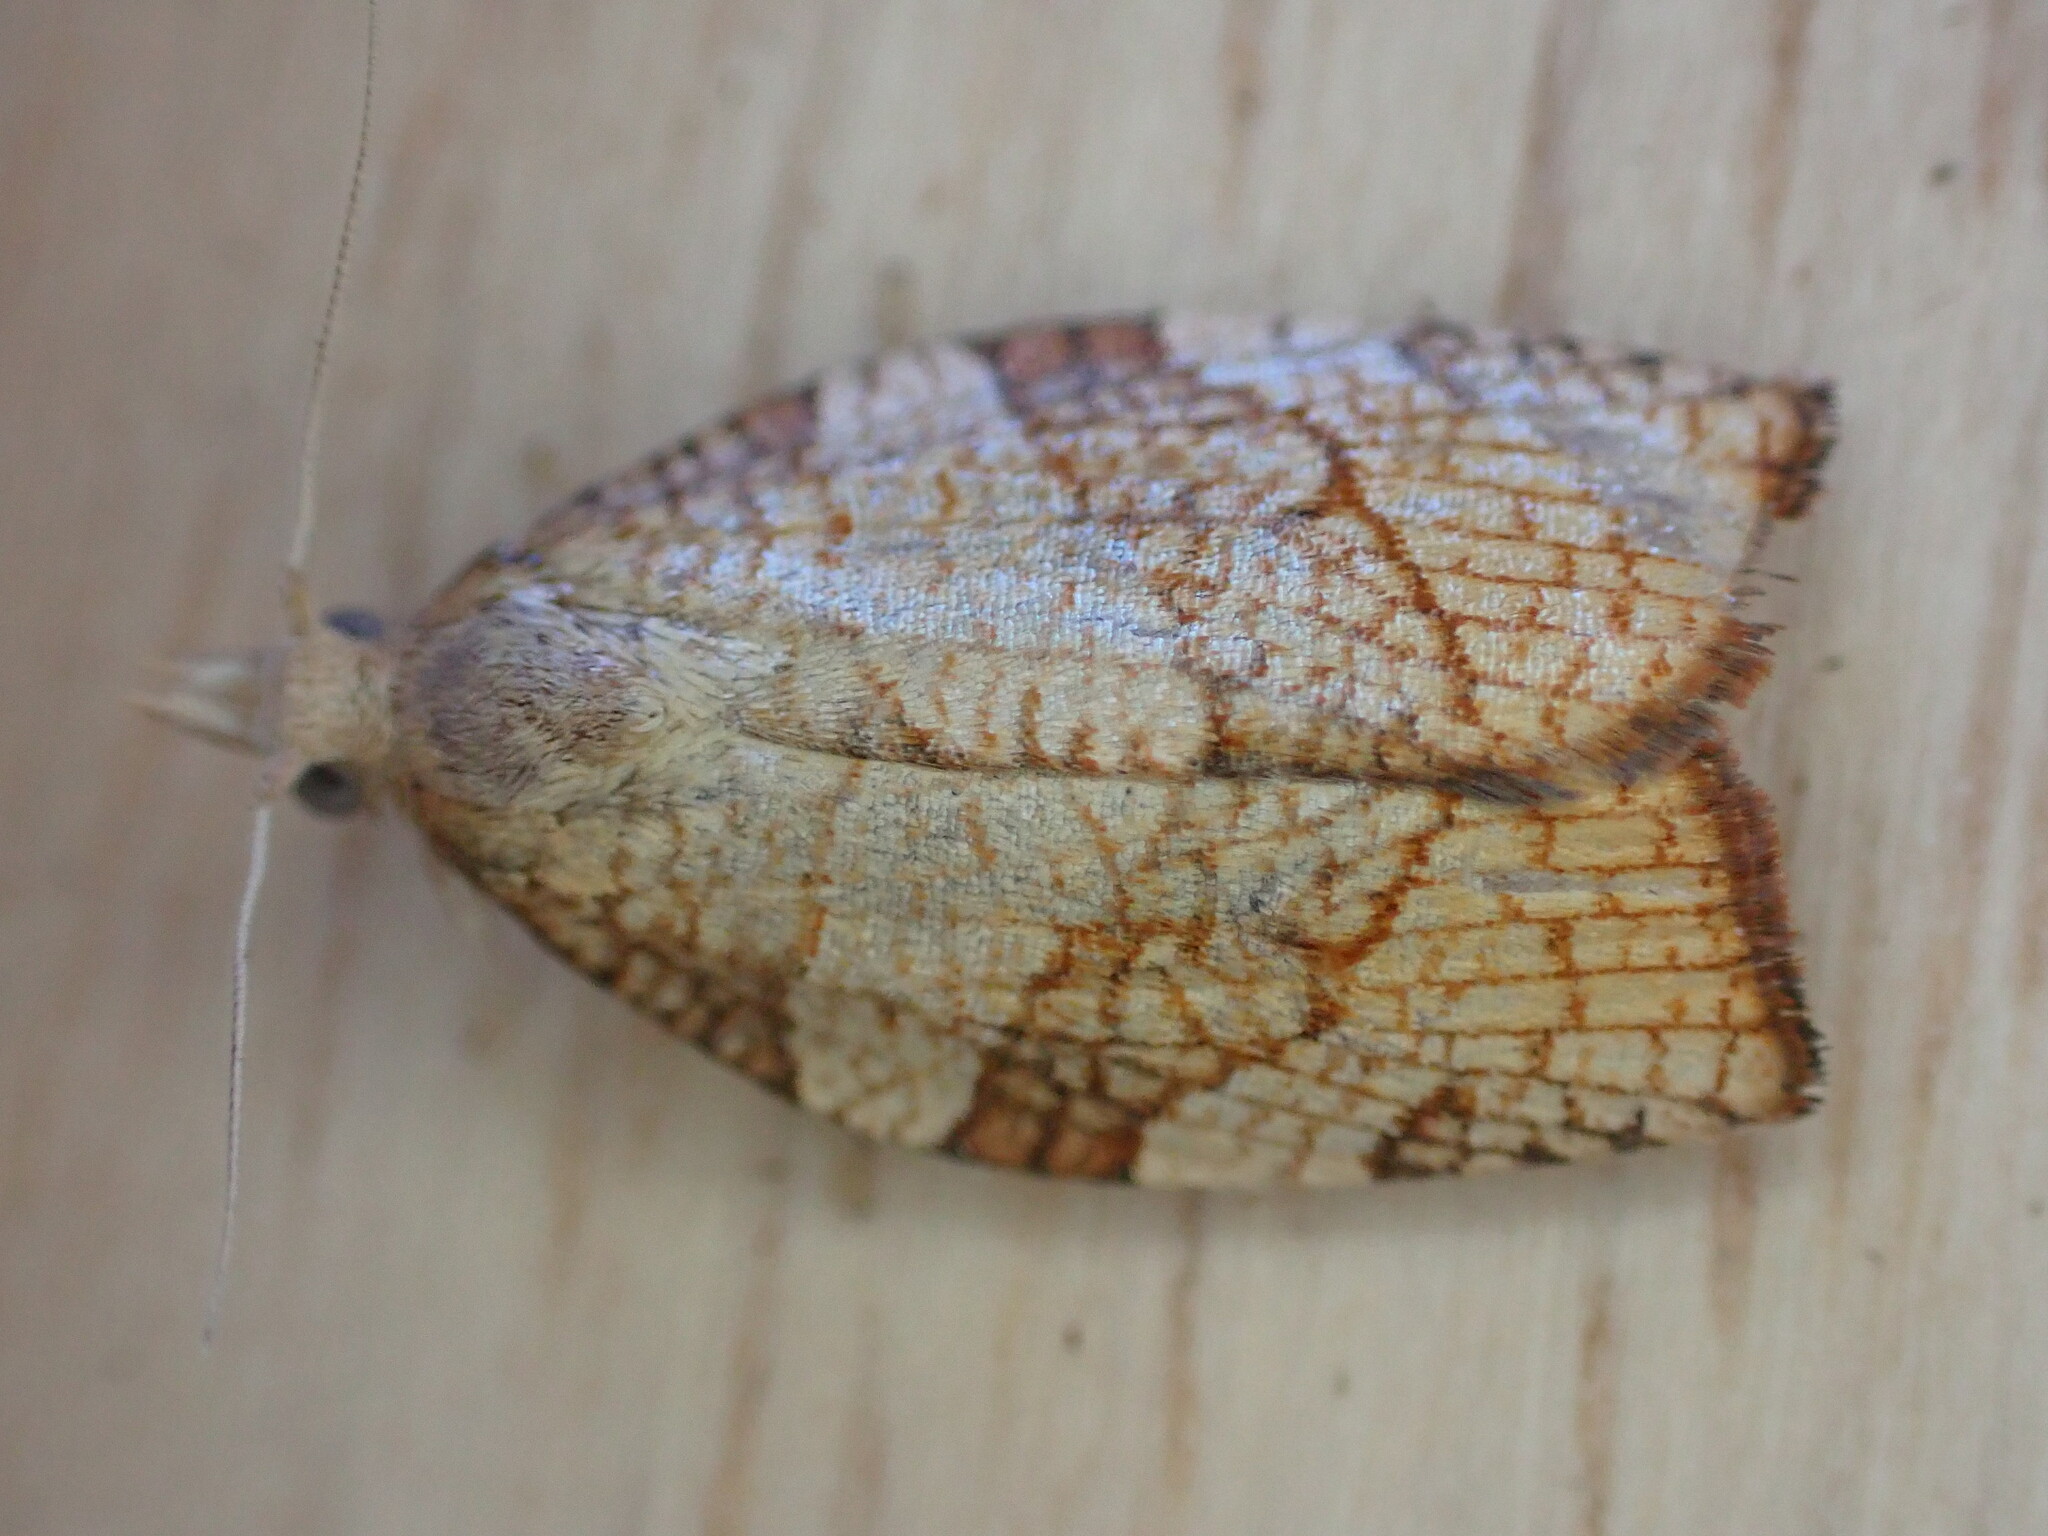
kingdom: Animalia
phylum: Arthropoda
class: Insecta
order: Lepidoptera
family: Tortricidae
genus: Pandemis
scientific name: Pandemis corylana
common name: Chequered fruit-tree tortrix
